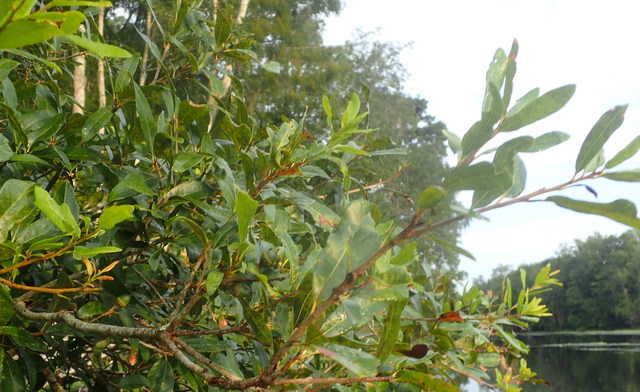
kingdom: Animalia
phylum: Arthropoda
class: Insecta
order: Hymenoptera
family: Cynipidae
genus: Disholcaspis
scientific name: Disholcaspis
